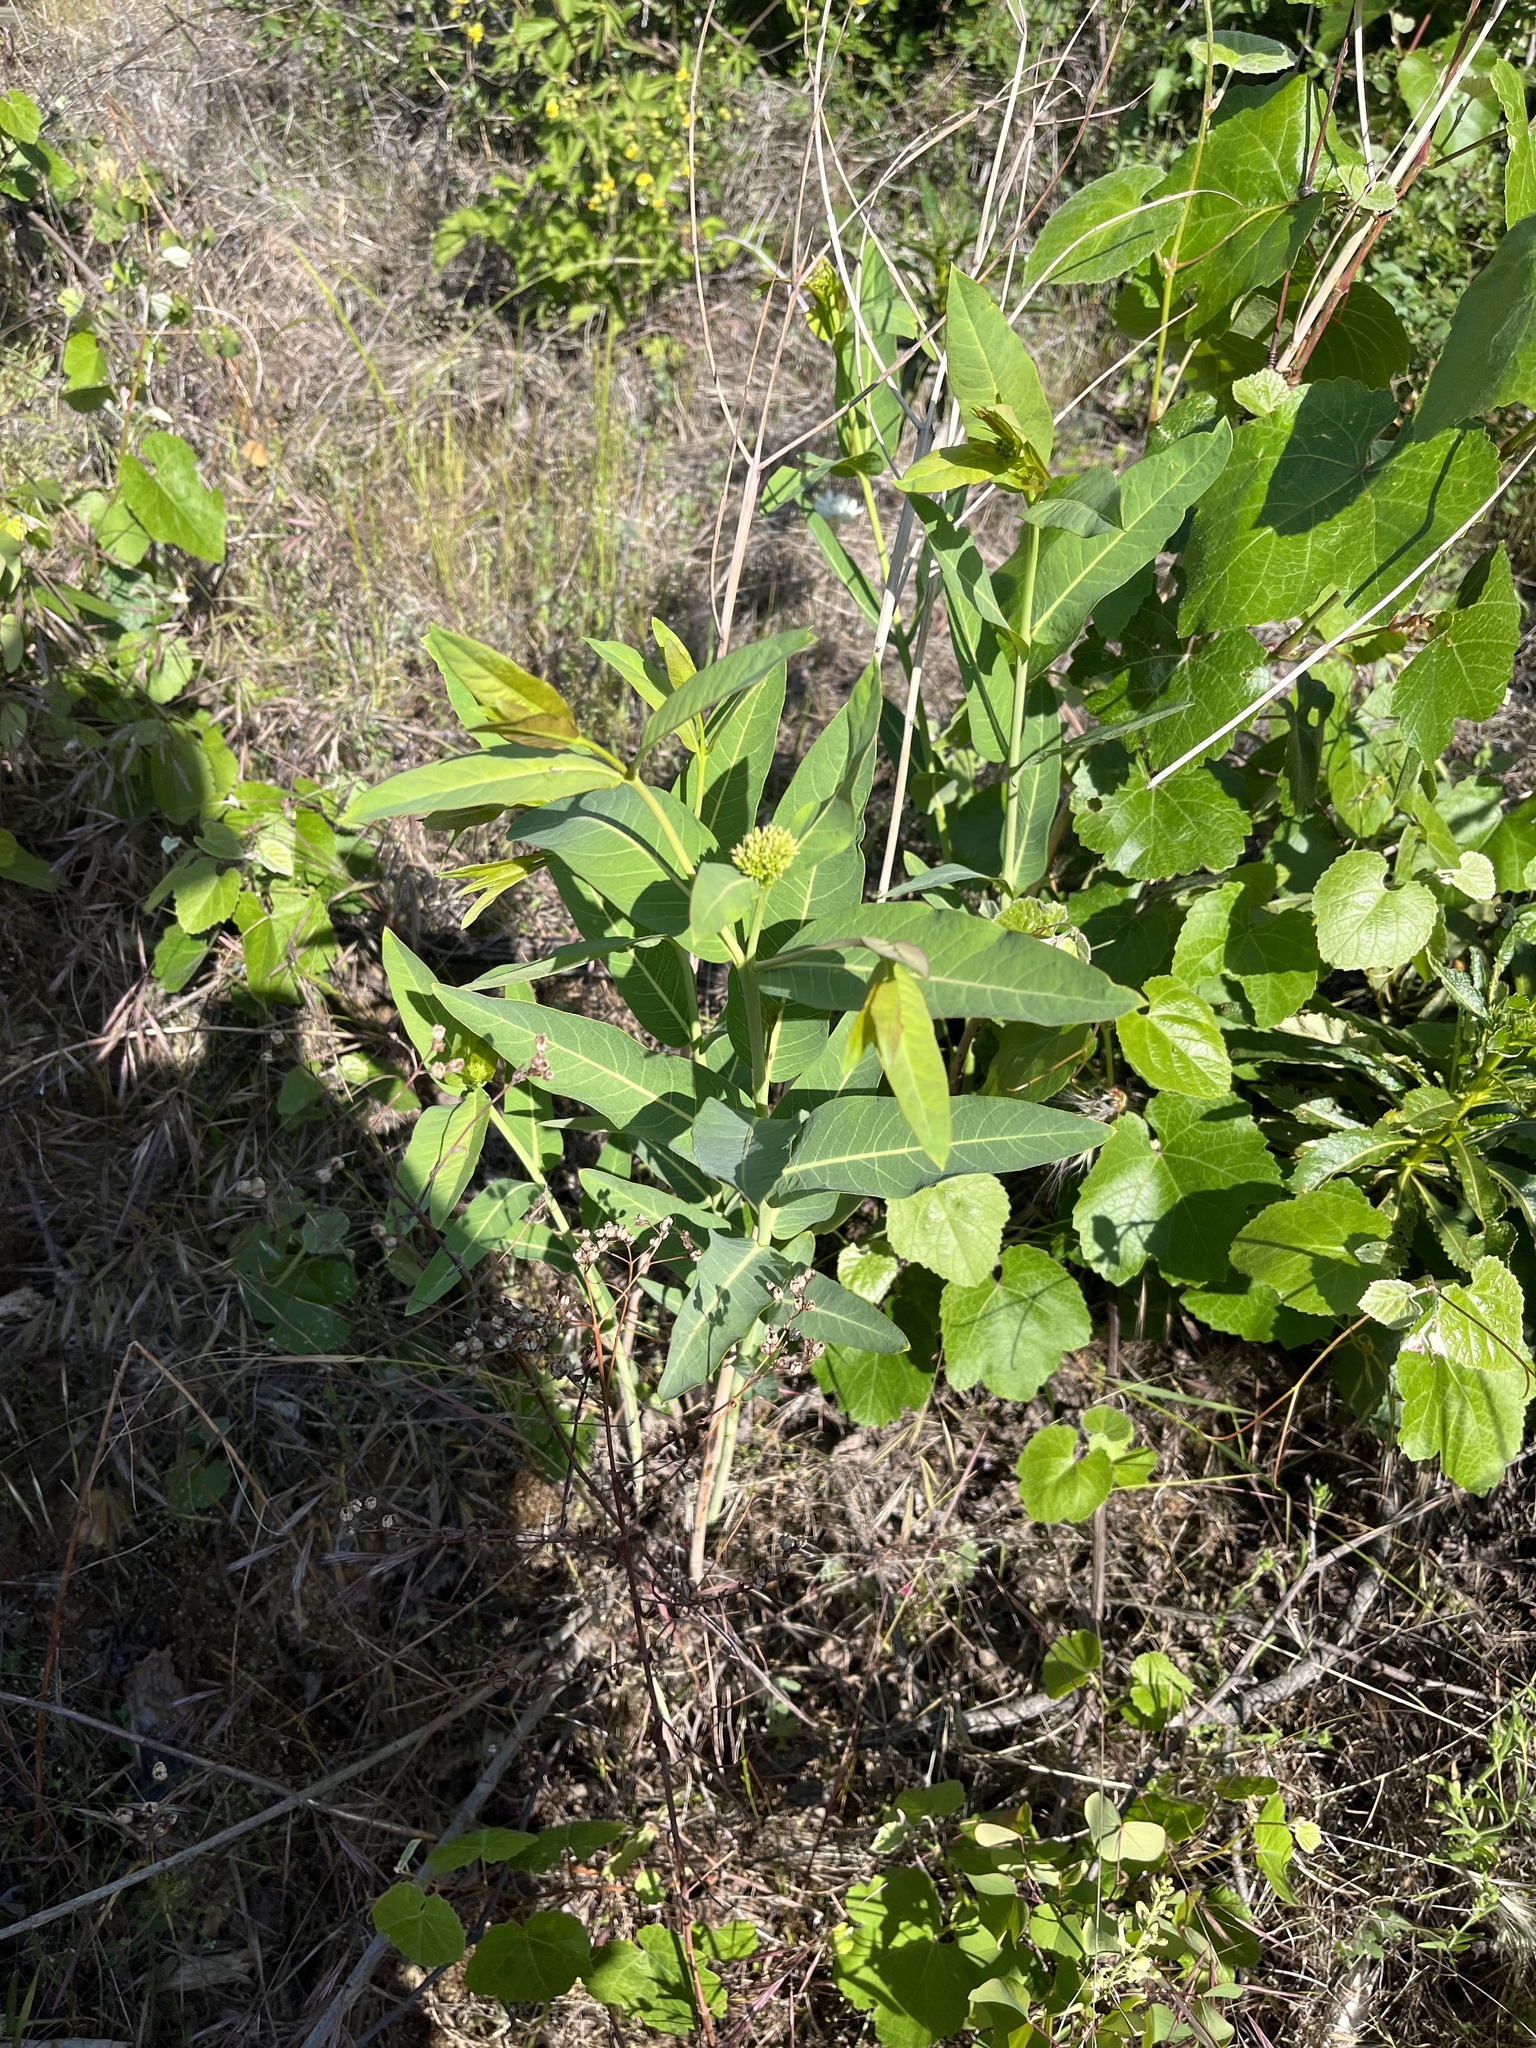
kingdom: Plantae
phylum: Tracheophyta
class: Magnoliopsida
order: Gentianales
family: Apocynaceae
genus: Apocynum
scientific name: Apocynum cannabinum
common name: Hemp dogbane
